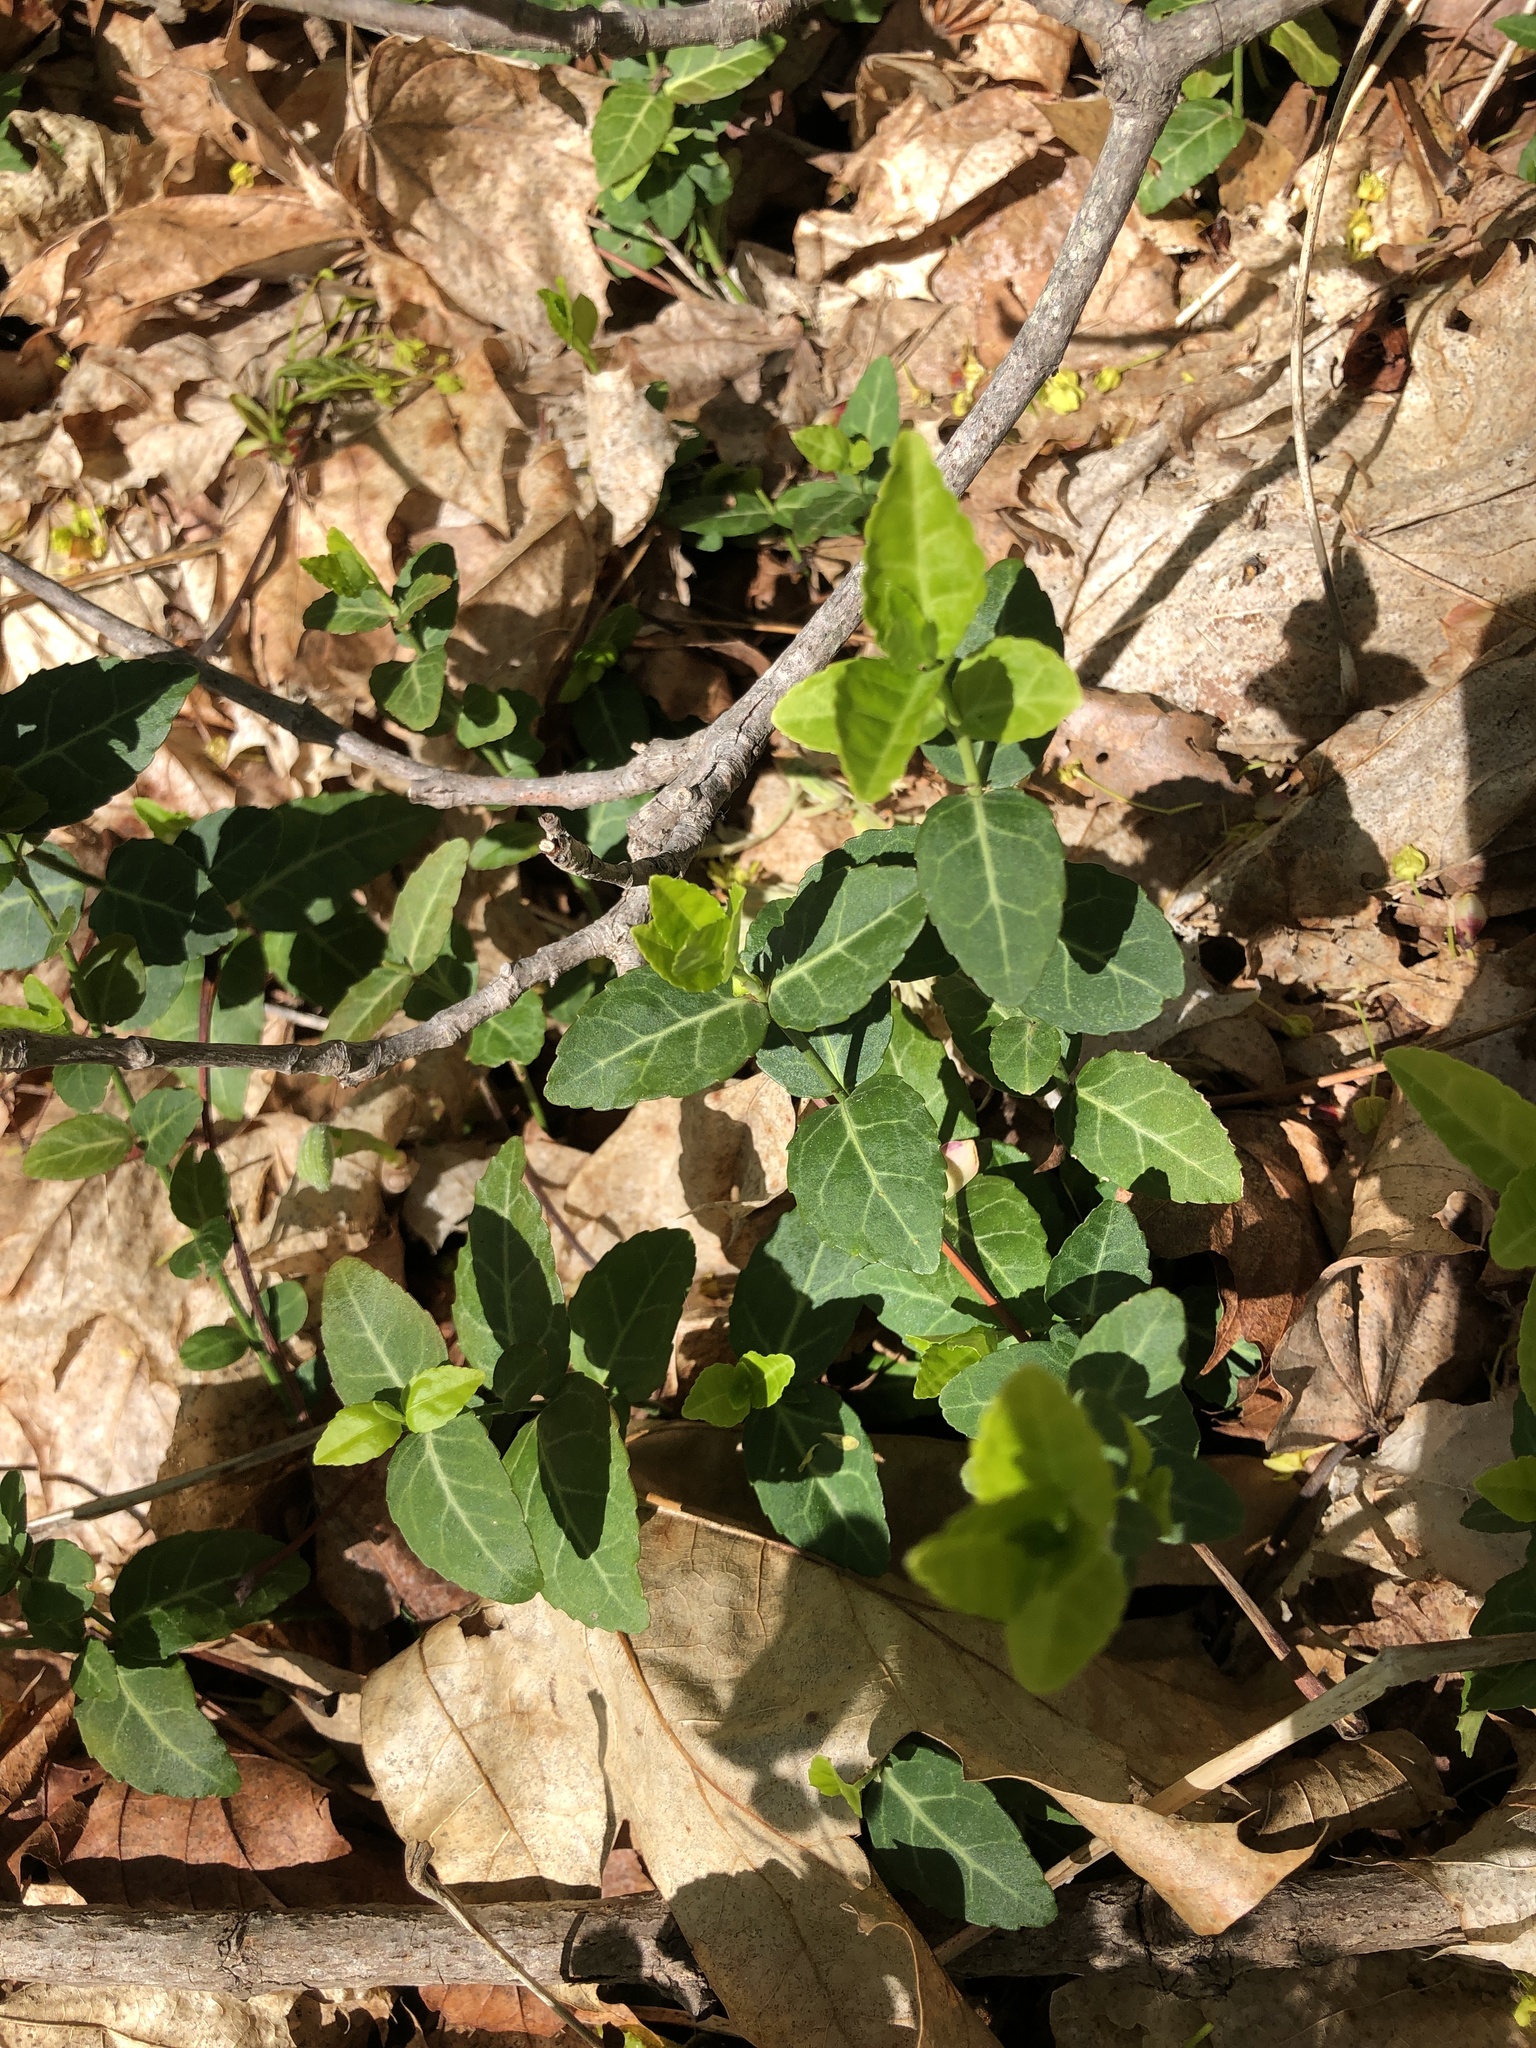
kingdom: Plantae
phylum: Tracheophyta
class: Magnoliopsida
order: Gentianales
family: Rubiaceae
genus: Mitchella
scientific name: Mitchella repens
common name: Partridge-berry
